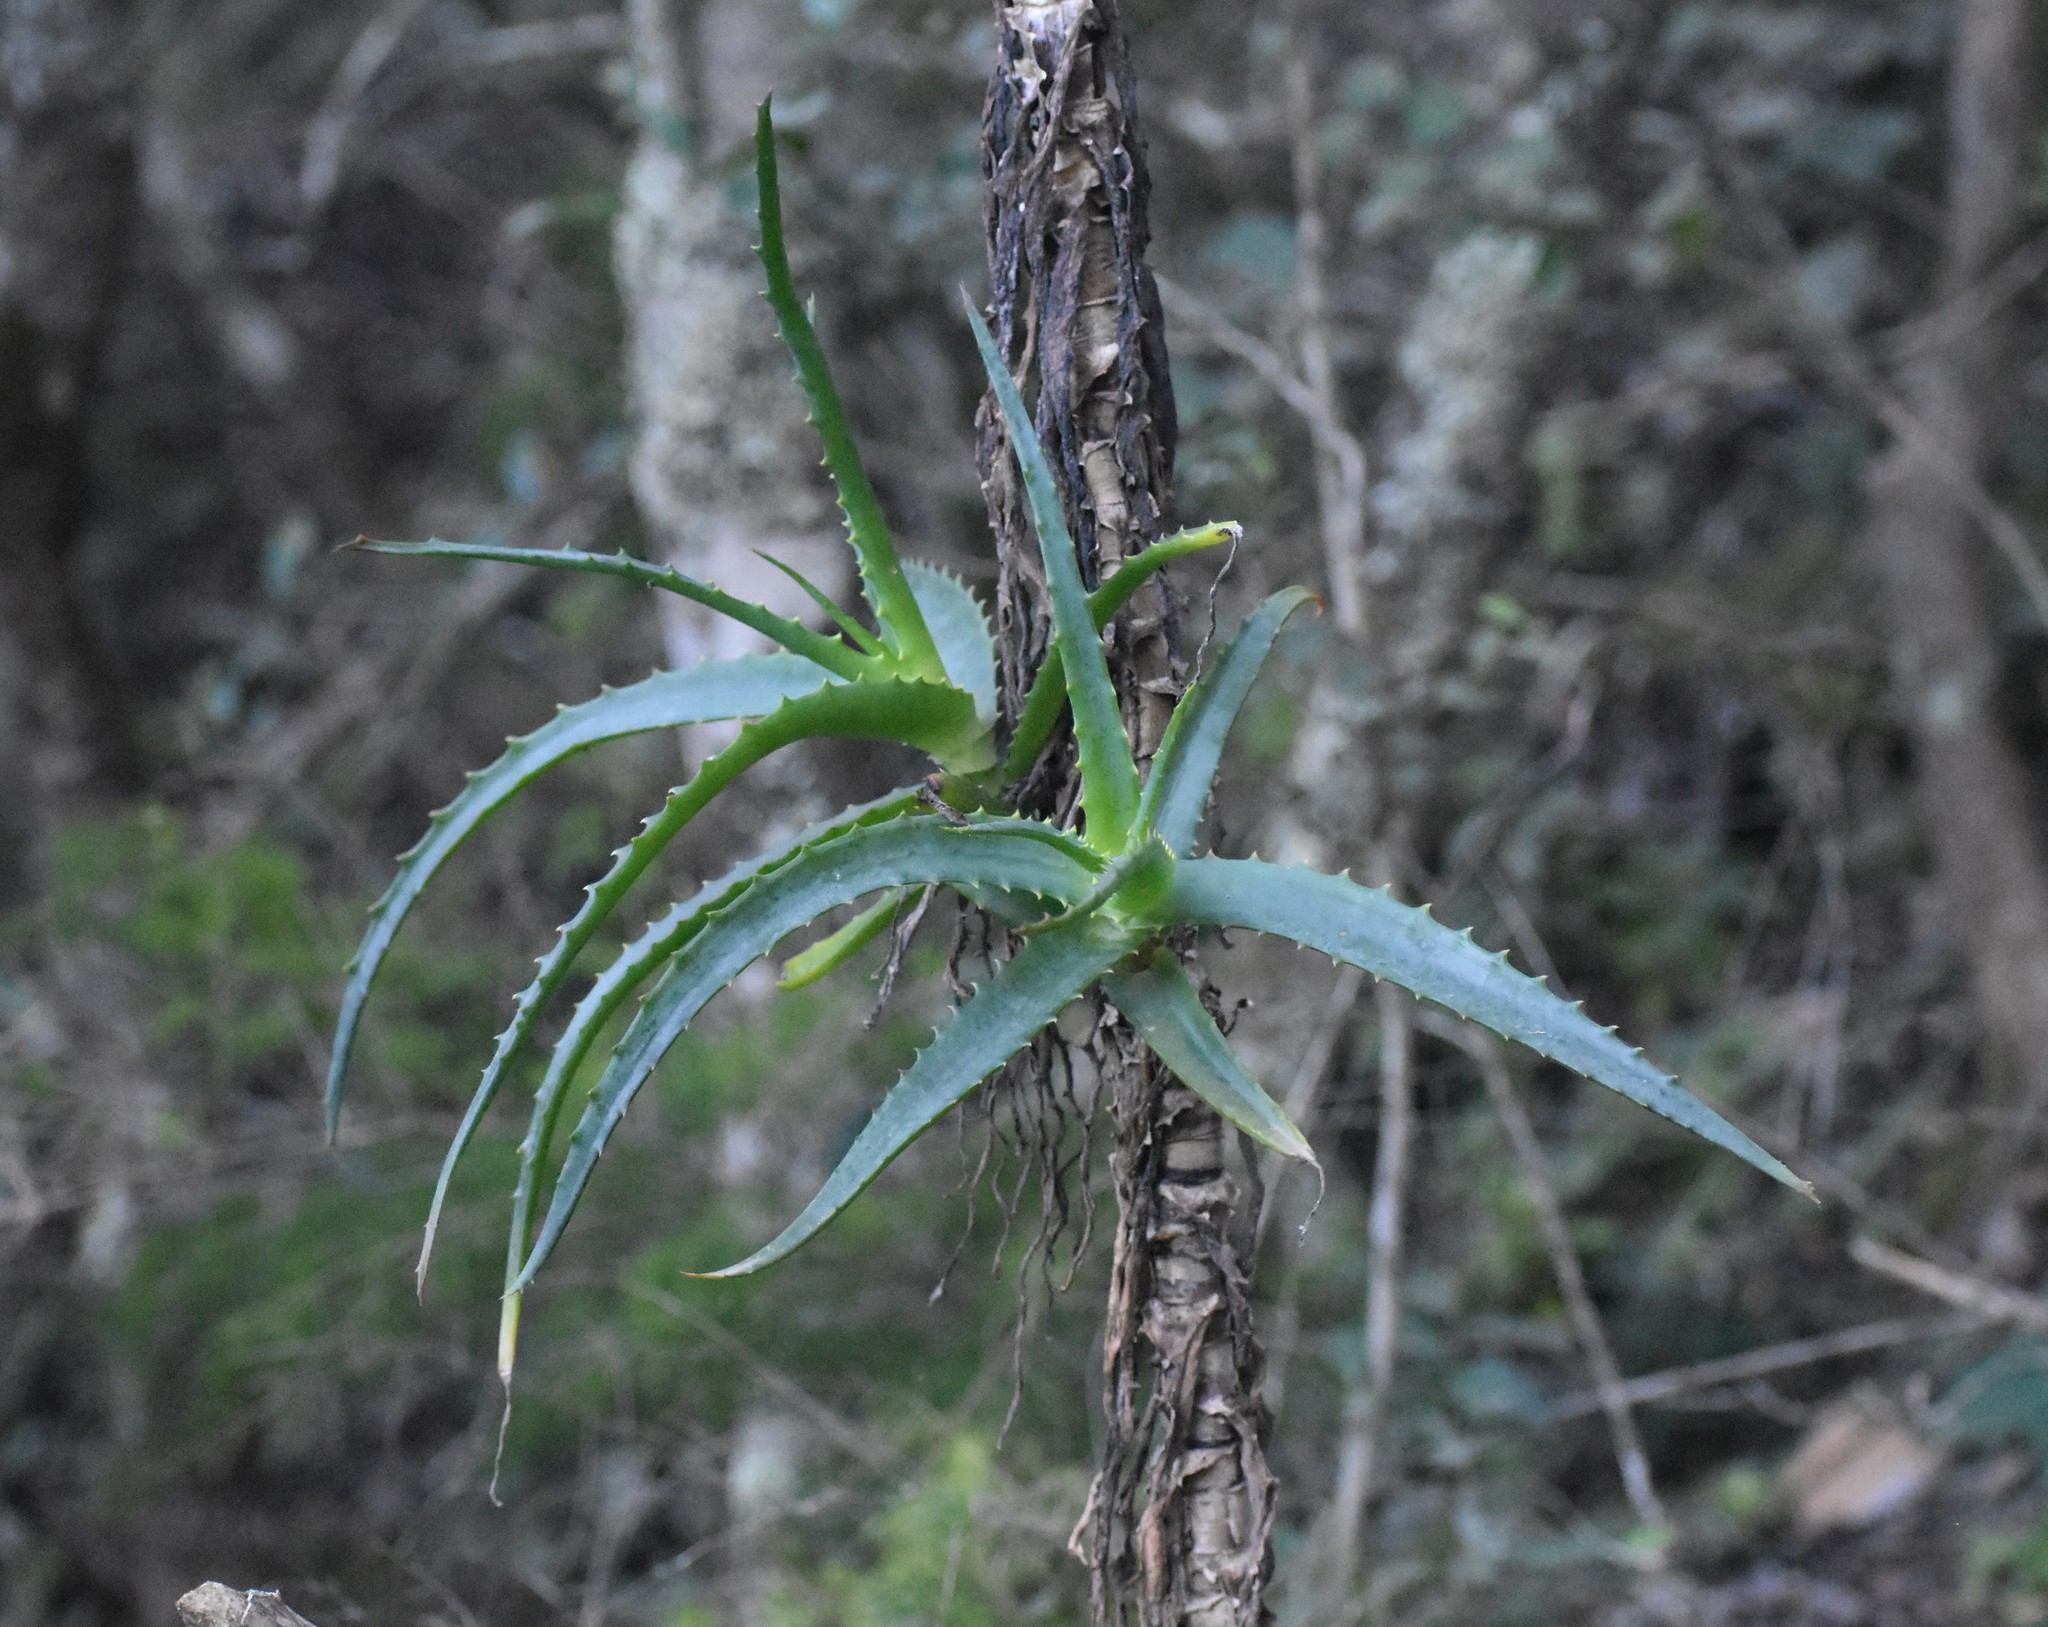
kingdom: Plantae
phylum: Tracheophyta
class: Liliopsida
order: Asparagales
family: Asphodelaceae
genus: Aloe
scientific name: Aloe arborescens
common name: Candelabra aloe
